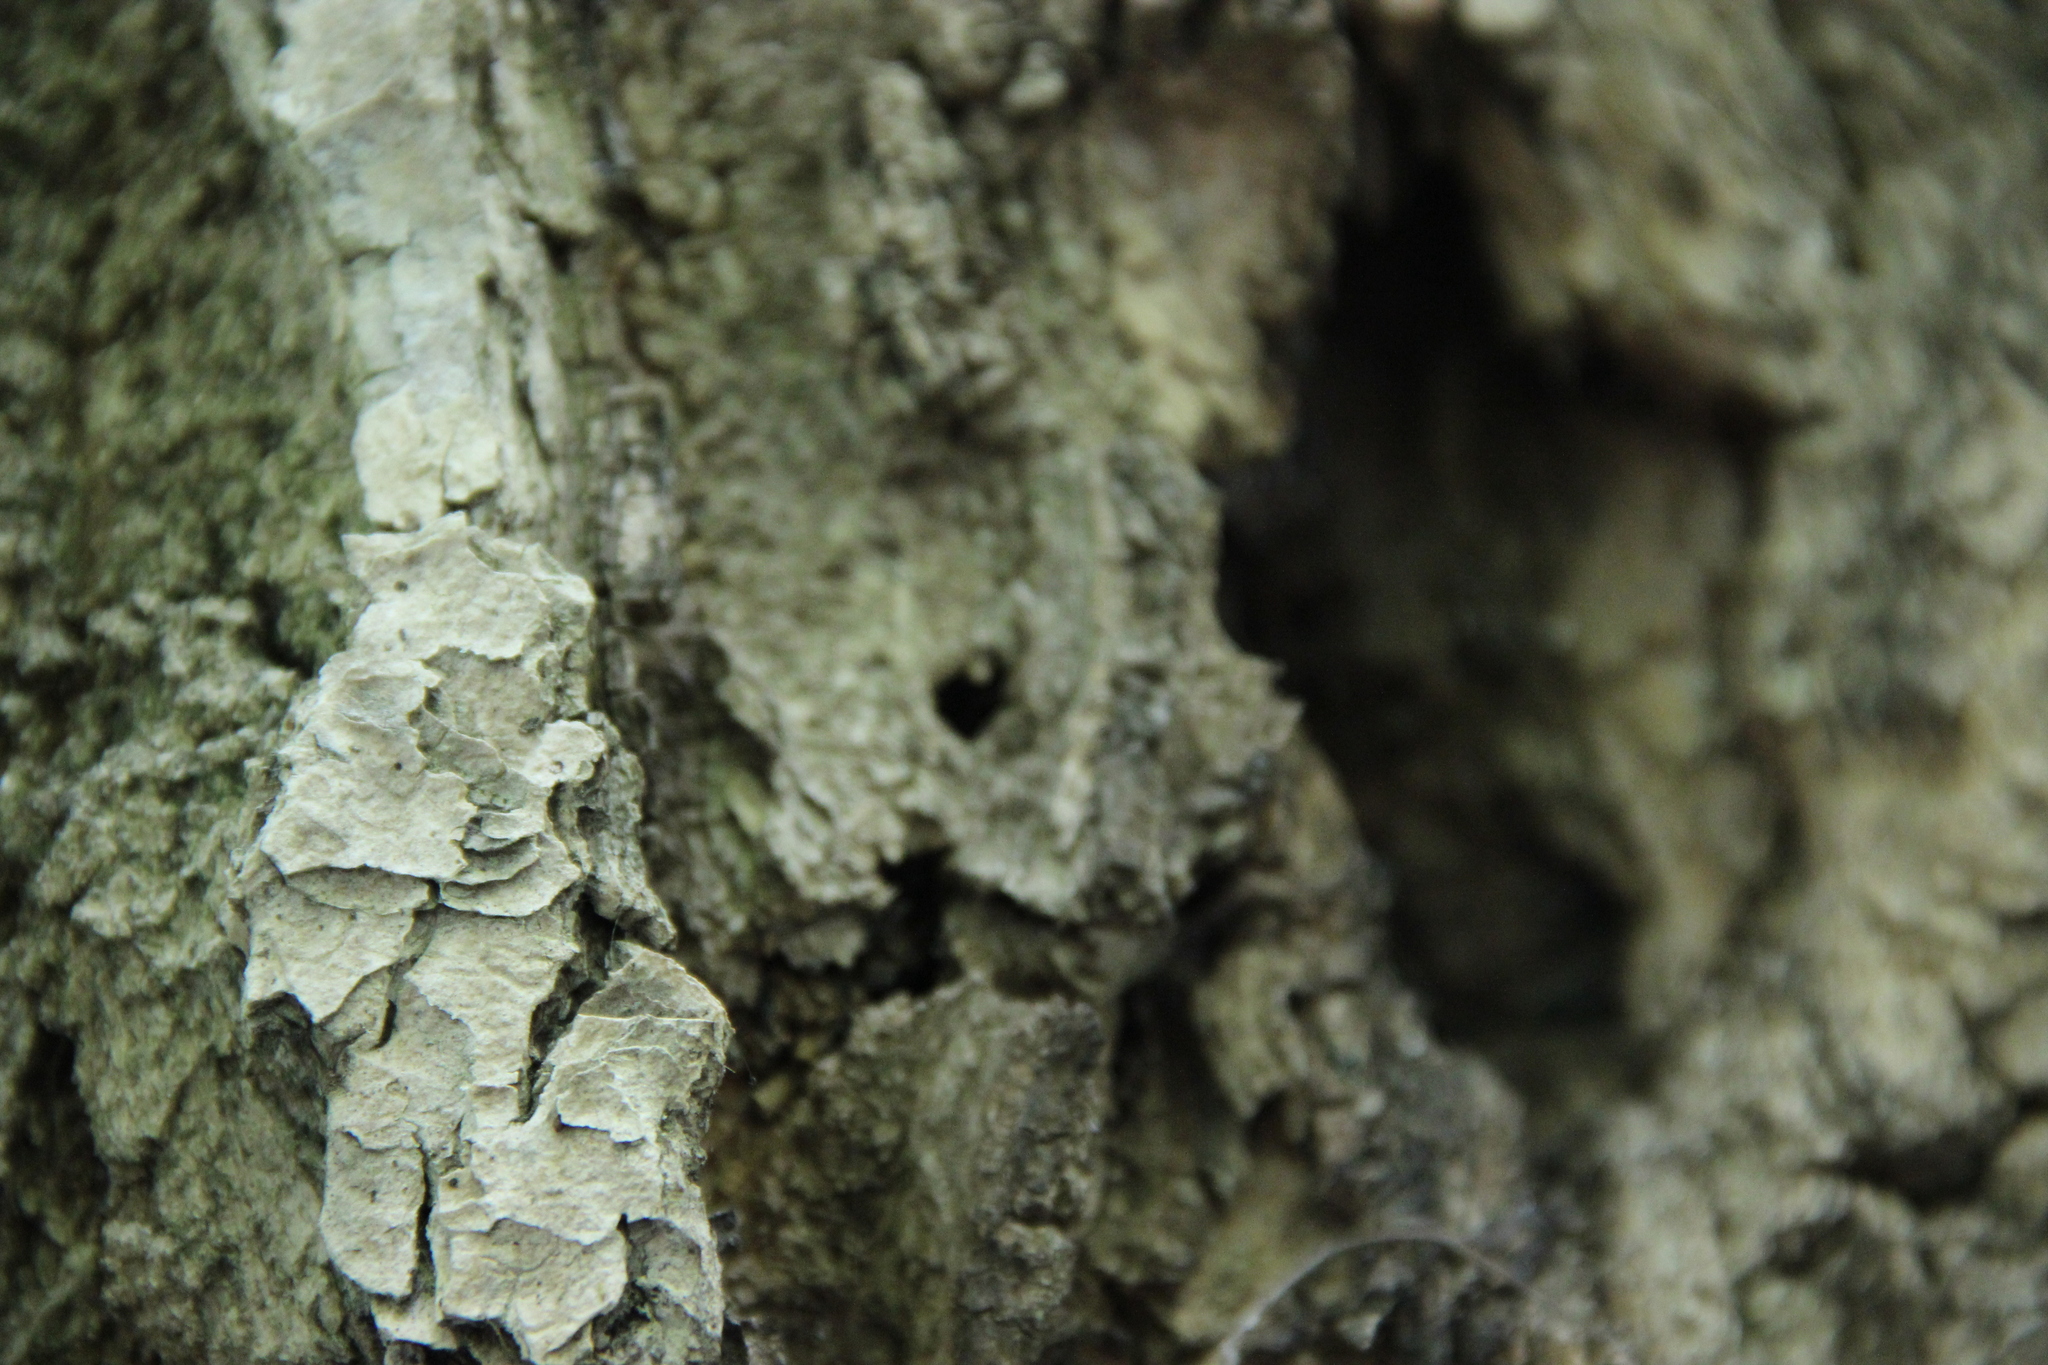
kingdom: Animalia
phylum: Arthropoda
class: Insecta
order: Coleoptera
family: Buprestidae
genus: Agrilus
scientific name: Agrilus planipennis
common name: Emerald ash borer
